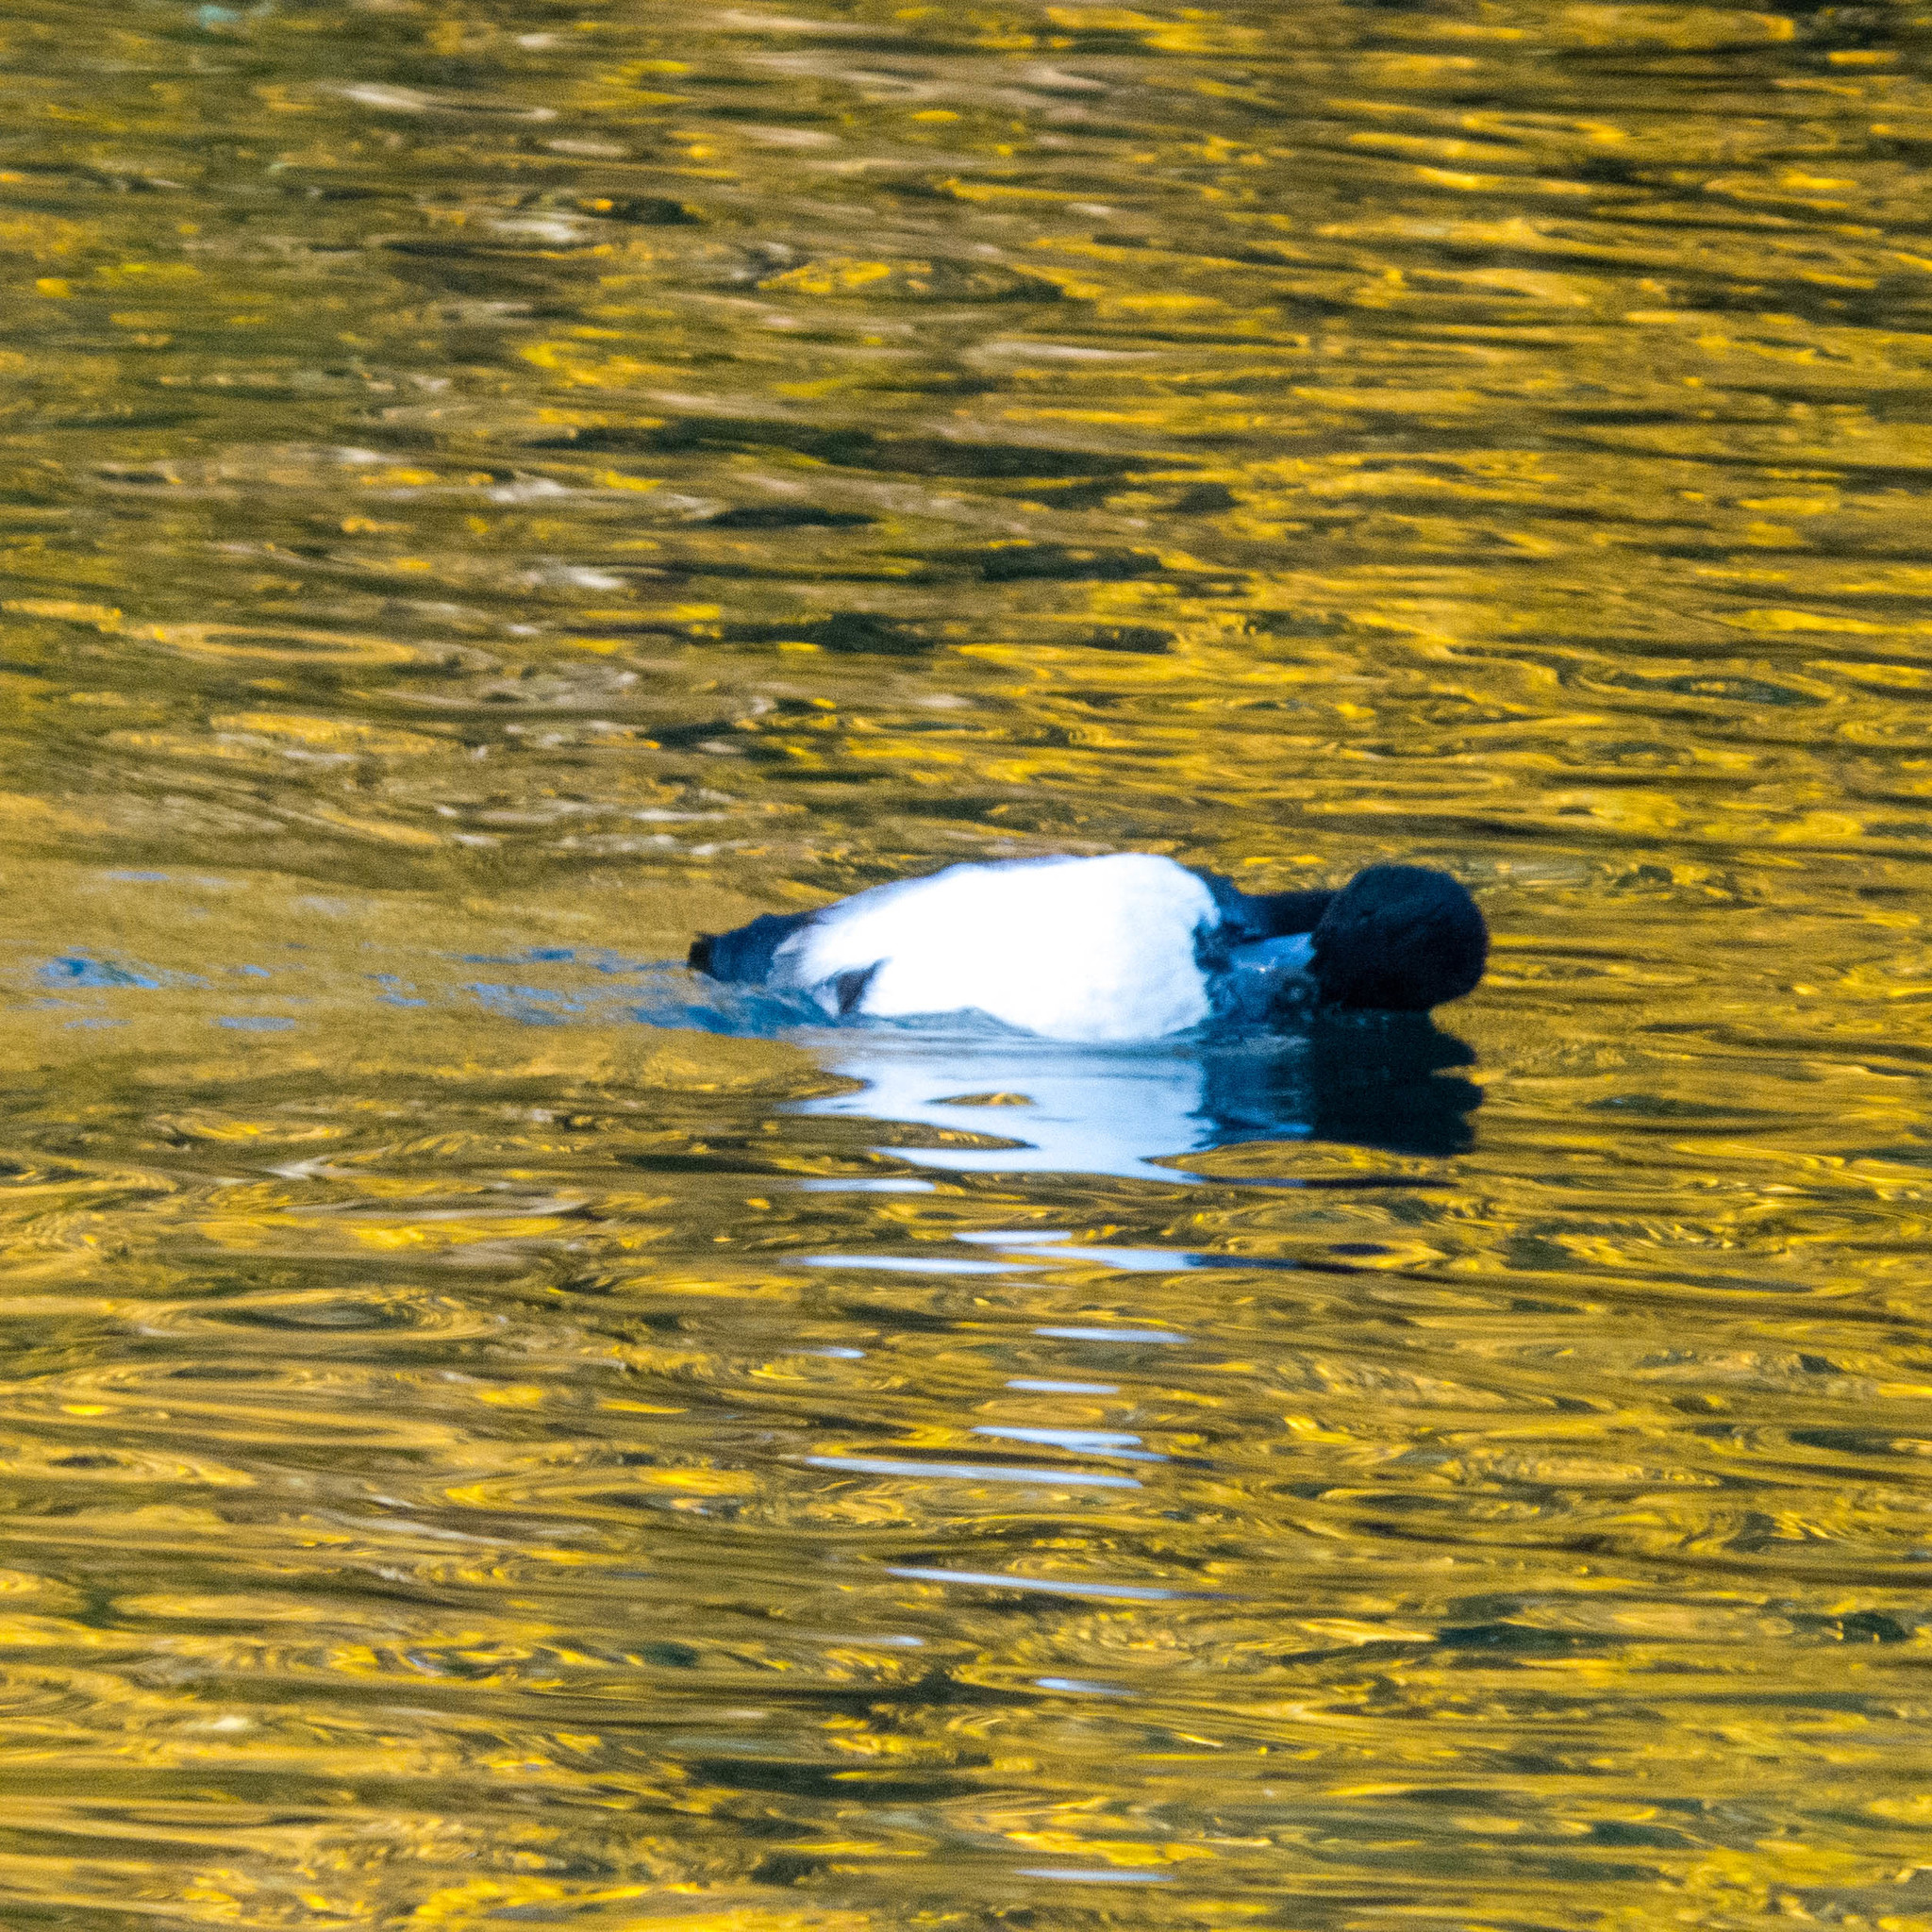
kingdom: Animalia
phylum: Chordata
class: Aves
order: Anseriformes
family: Anatidae
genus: Aythya
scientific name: Aythya fuligula
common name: Tufted duck
